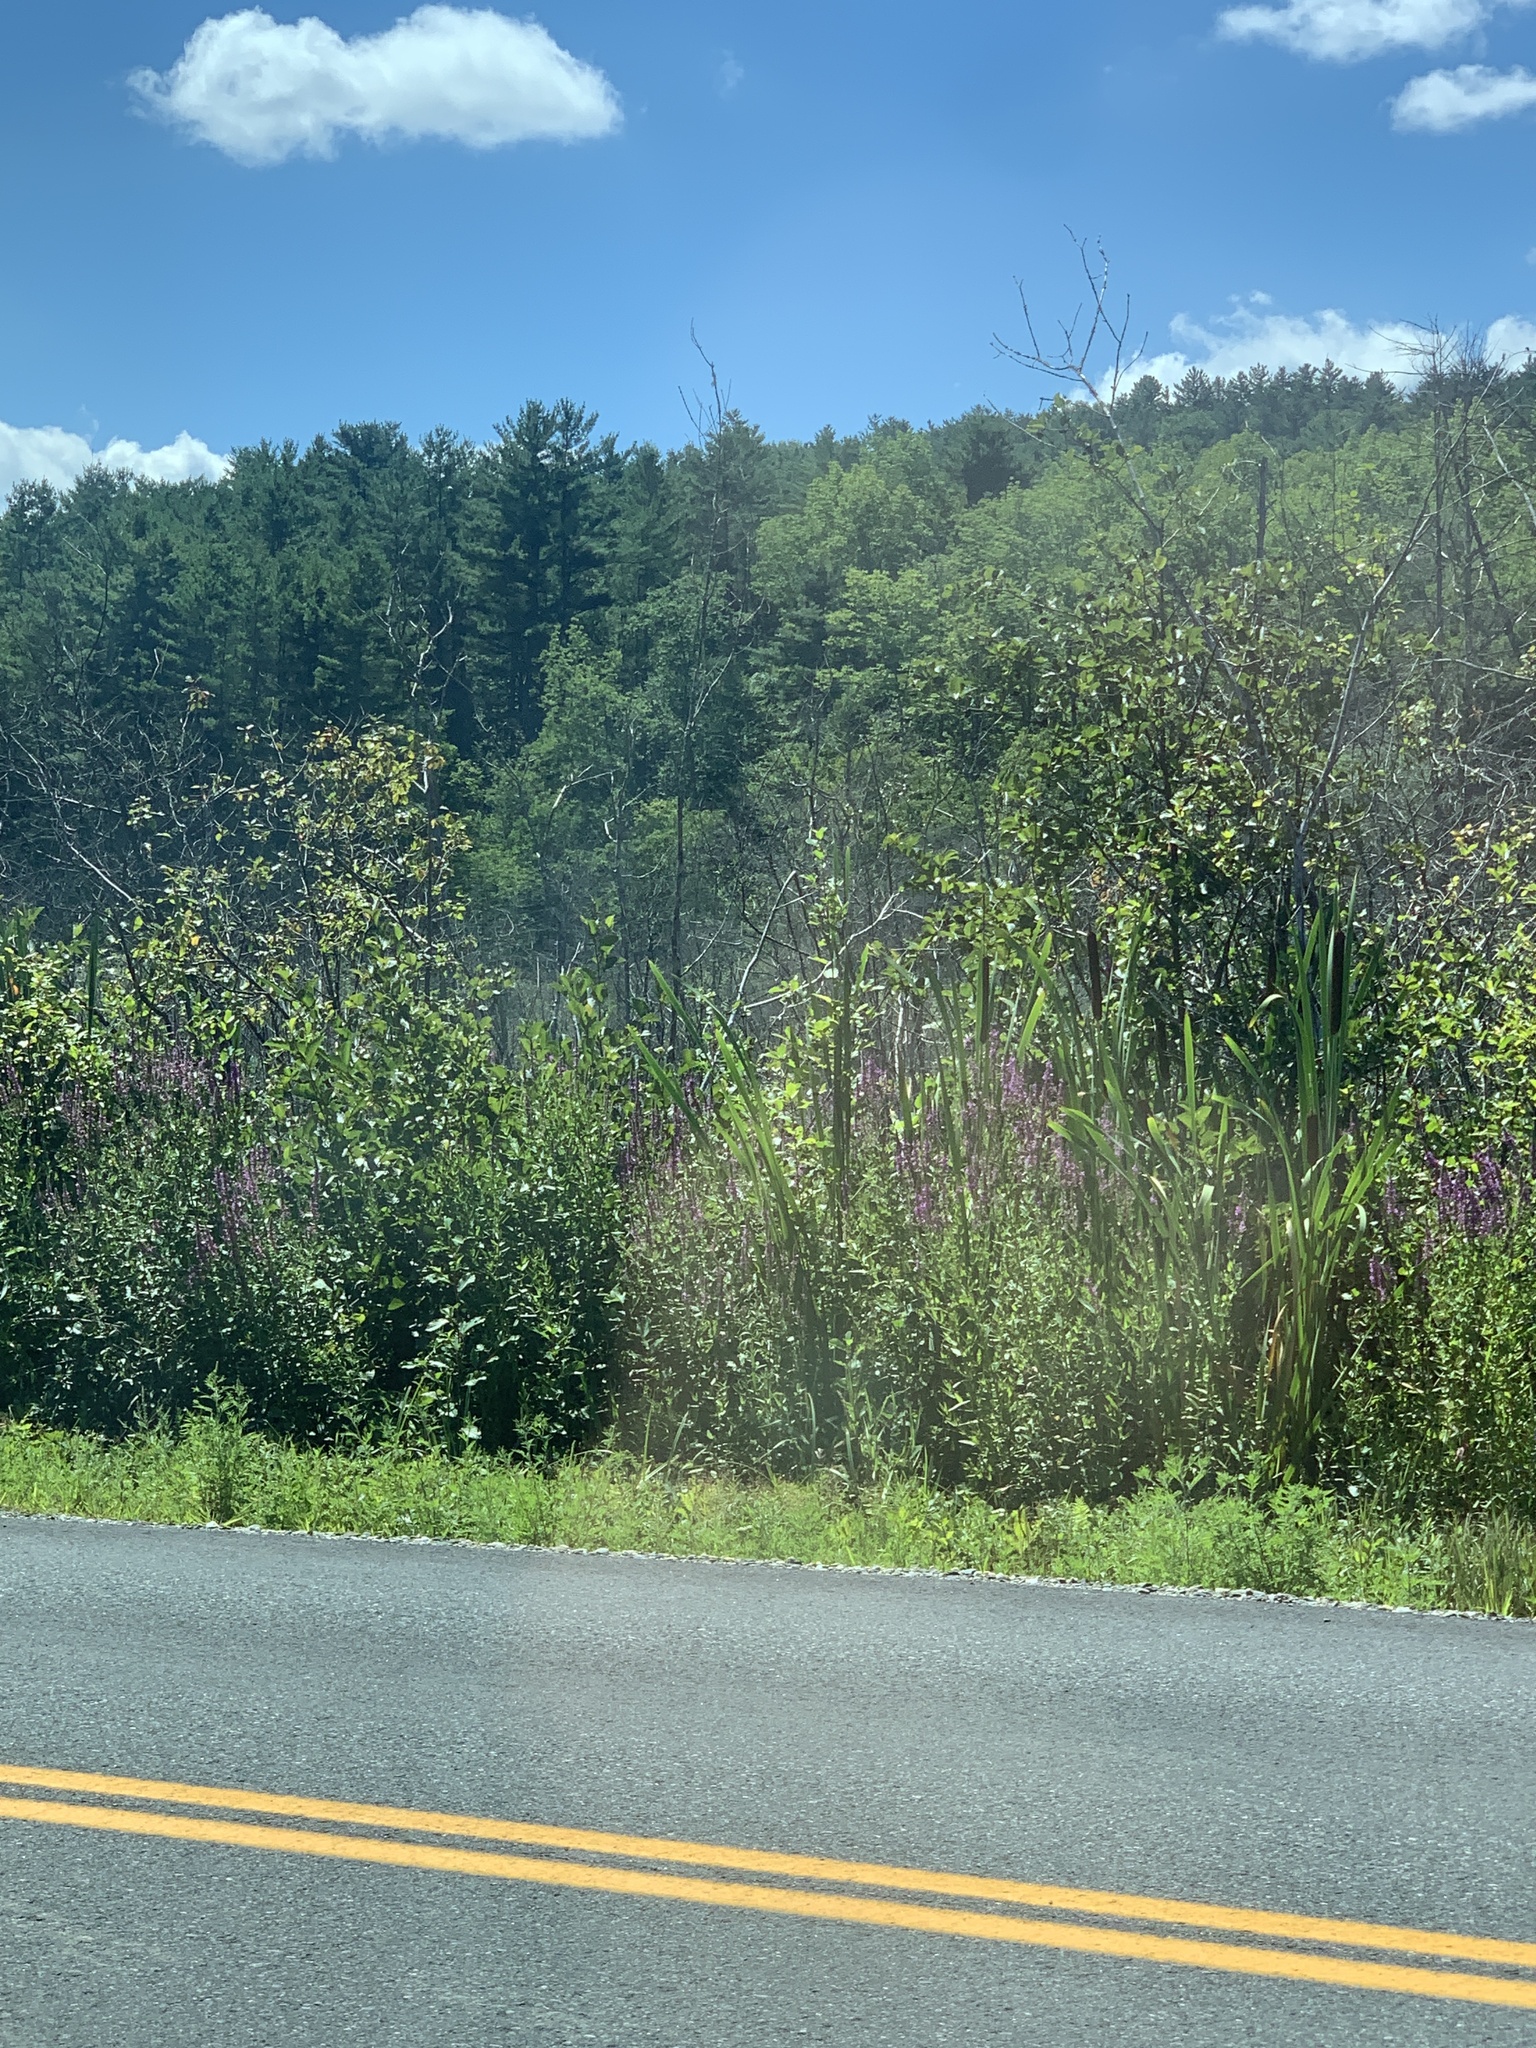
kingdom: Plantae
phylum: Tracheophyta
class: Magnoliopsida
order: Myrtales
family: Lythraceae
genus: Lythrum
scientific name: Lythrum salicaria
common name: Purple loosestrife
